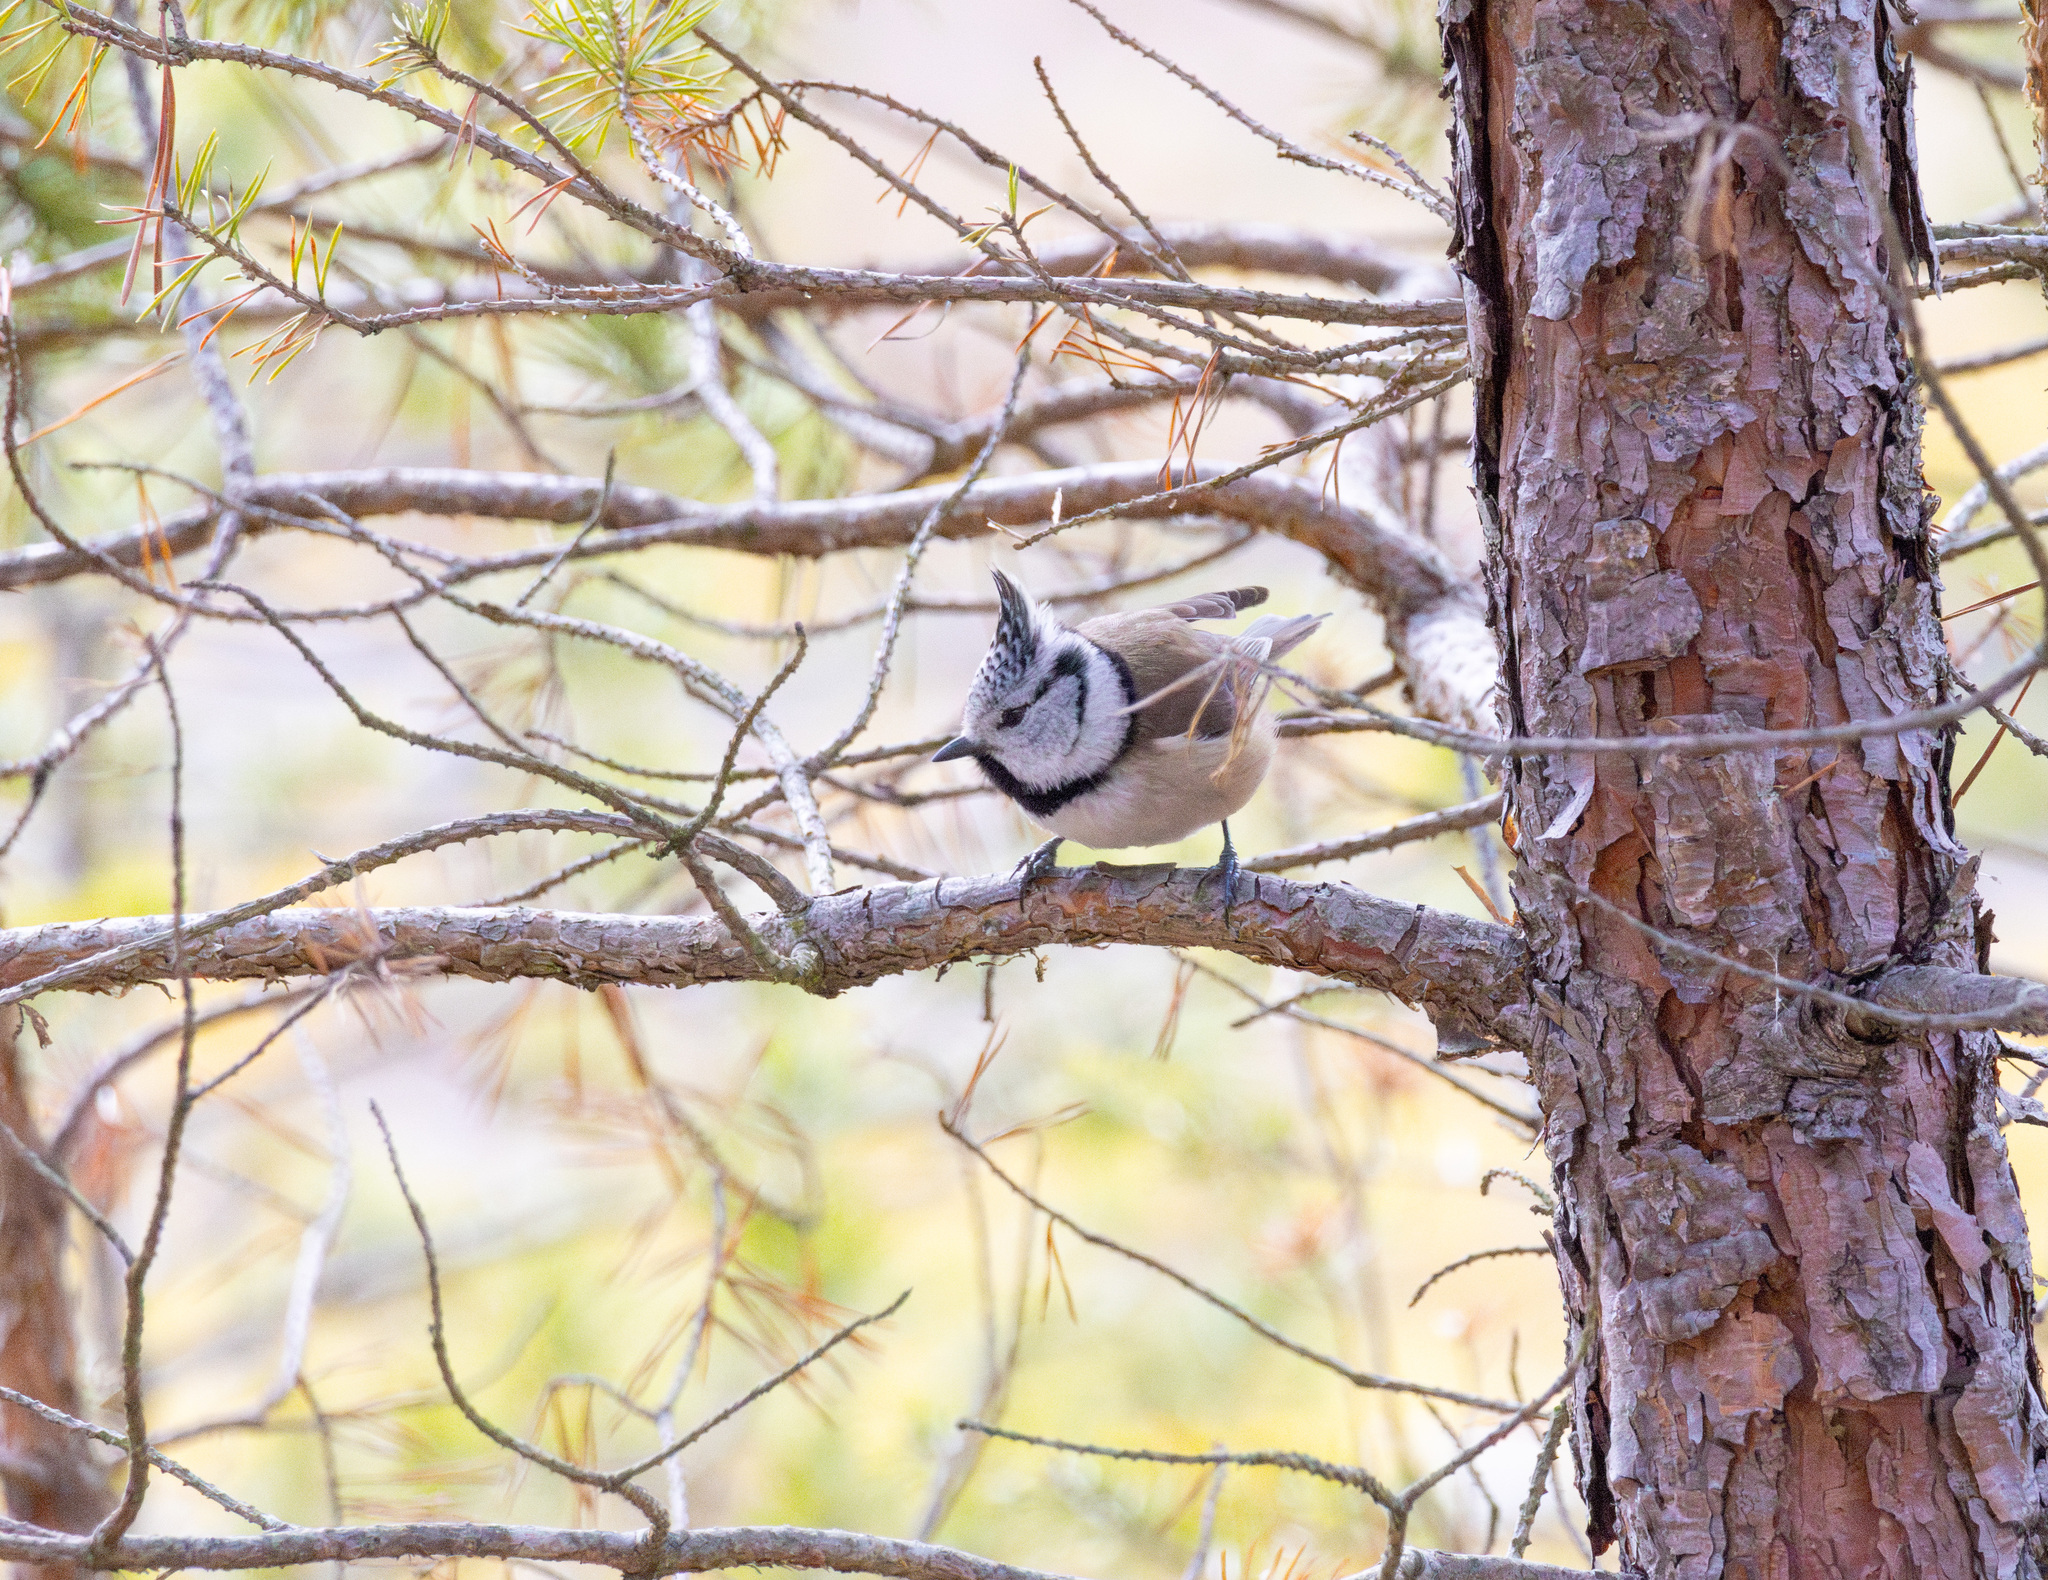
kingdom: Animalia
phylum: Chordata
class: Aves
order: Passeriformes
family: Paridae
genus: Lophophanes
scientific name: Lophophanes cristatus
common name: European crested tit
